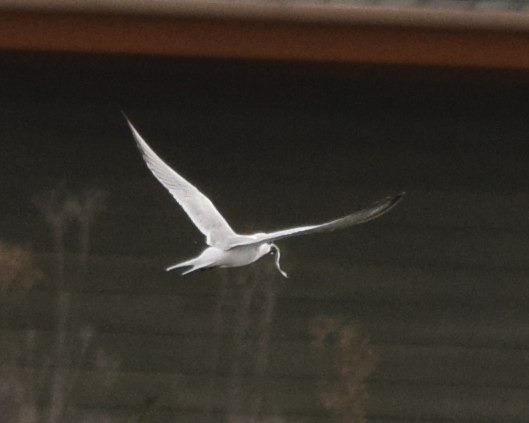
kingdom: Animalia
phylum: Chordata
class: Aves
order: Charadriiformes
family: Laridae
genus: Sterna
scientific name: Sterna forsteri
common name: Forster's tern
